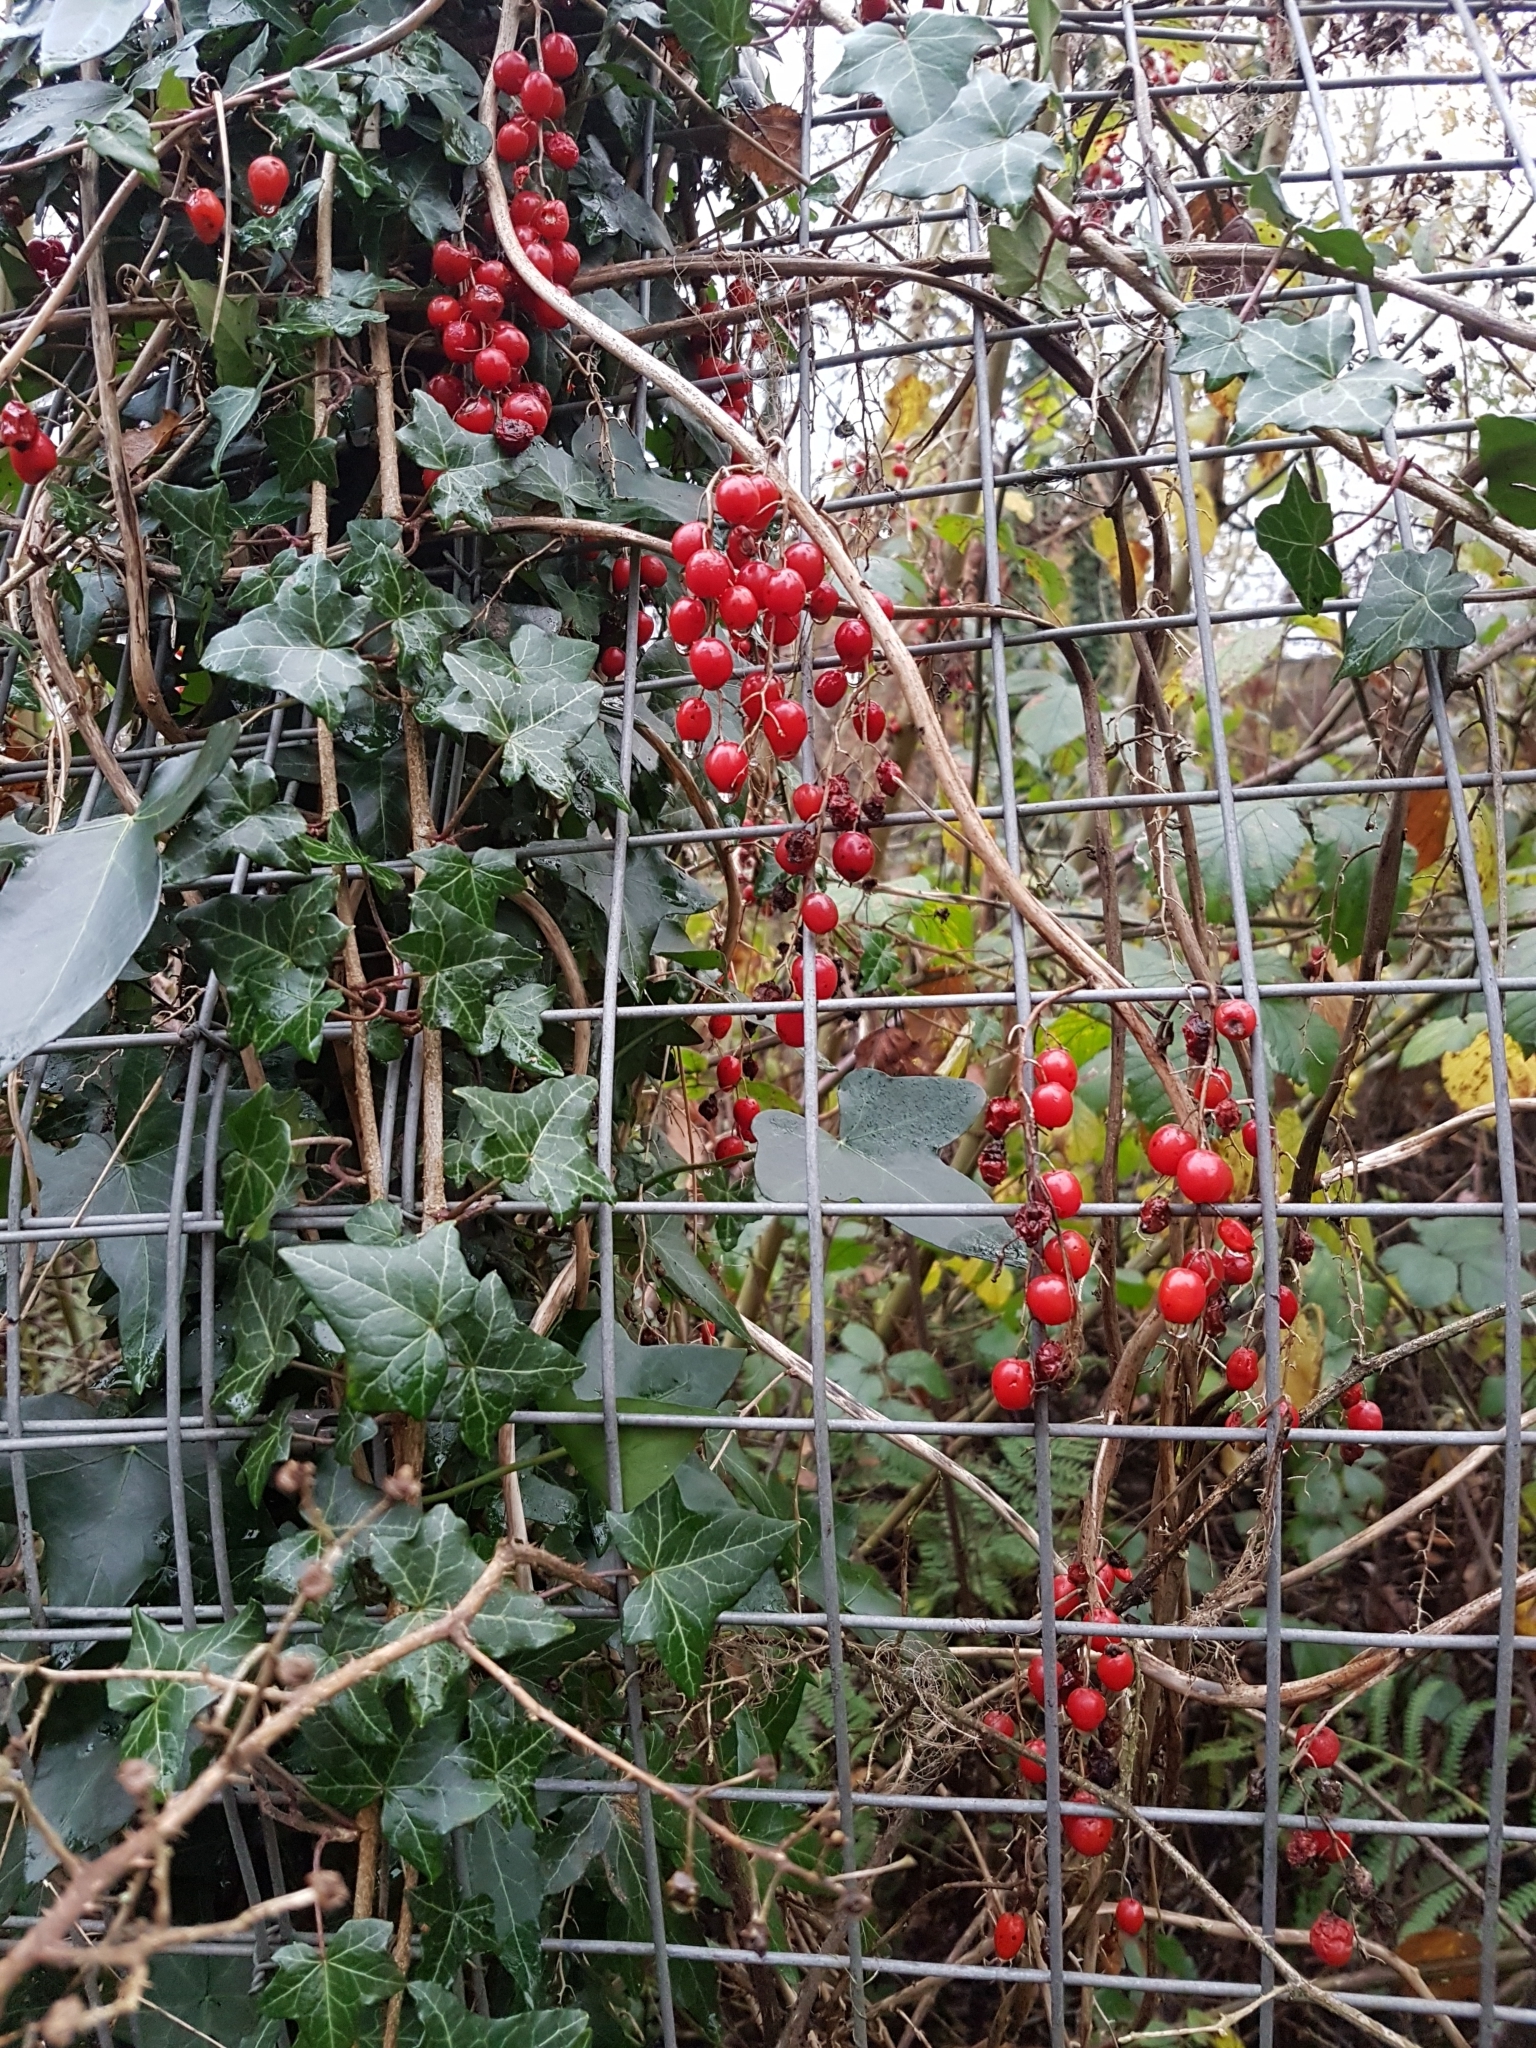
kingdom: Plantae
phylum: Tracheophyta
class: Liliopsida
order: Dioscoreales
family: Dioscoreaceae
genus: Dioscorea
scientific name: Dioscorea communis
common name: Black-bindweed
